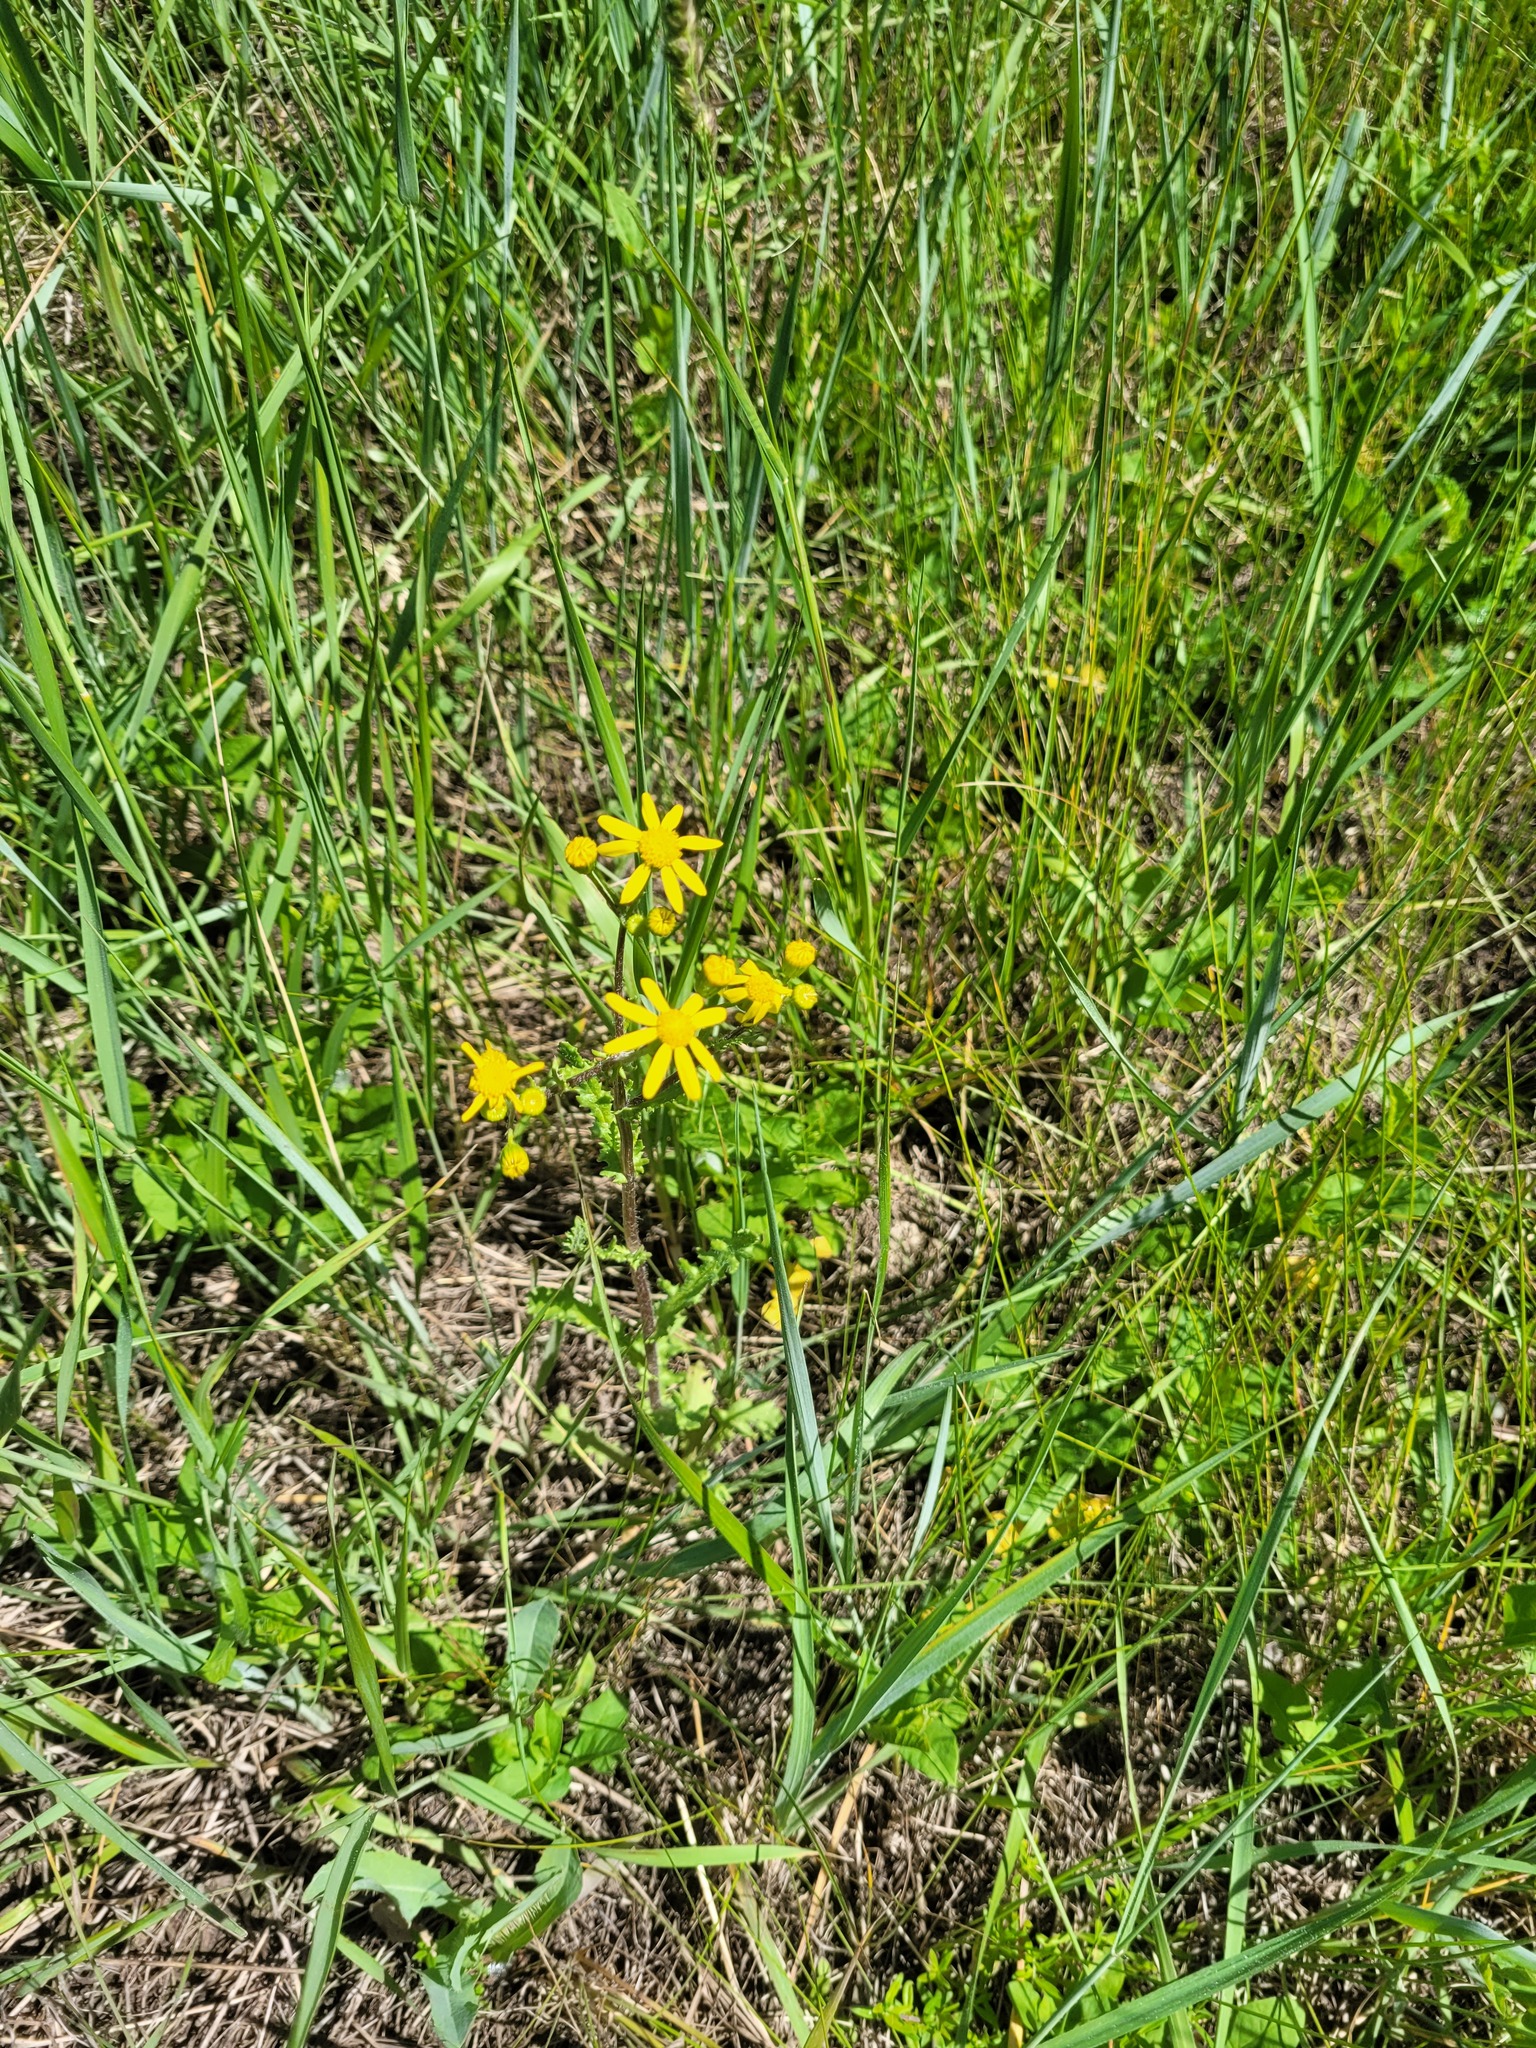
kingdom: Plantae
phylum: Tracheophyta
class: Magnoliopsida
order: Asterales
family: Asteraceae
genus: Senecio
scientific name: Senecio vernalis
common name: Eastern groundsel
